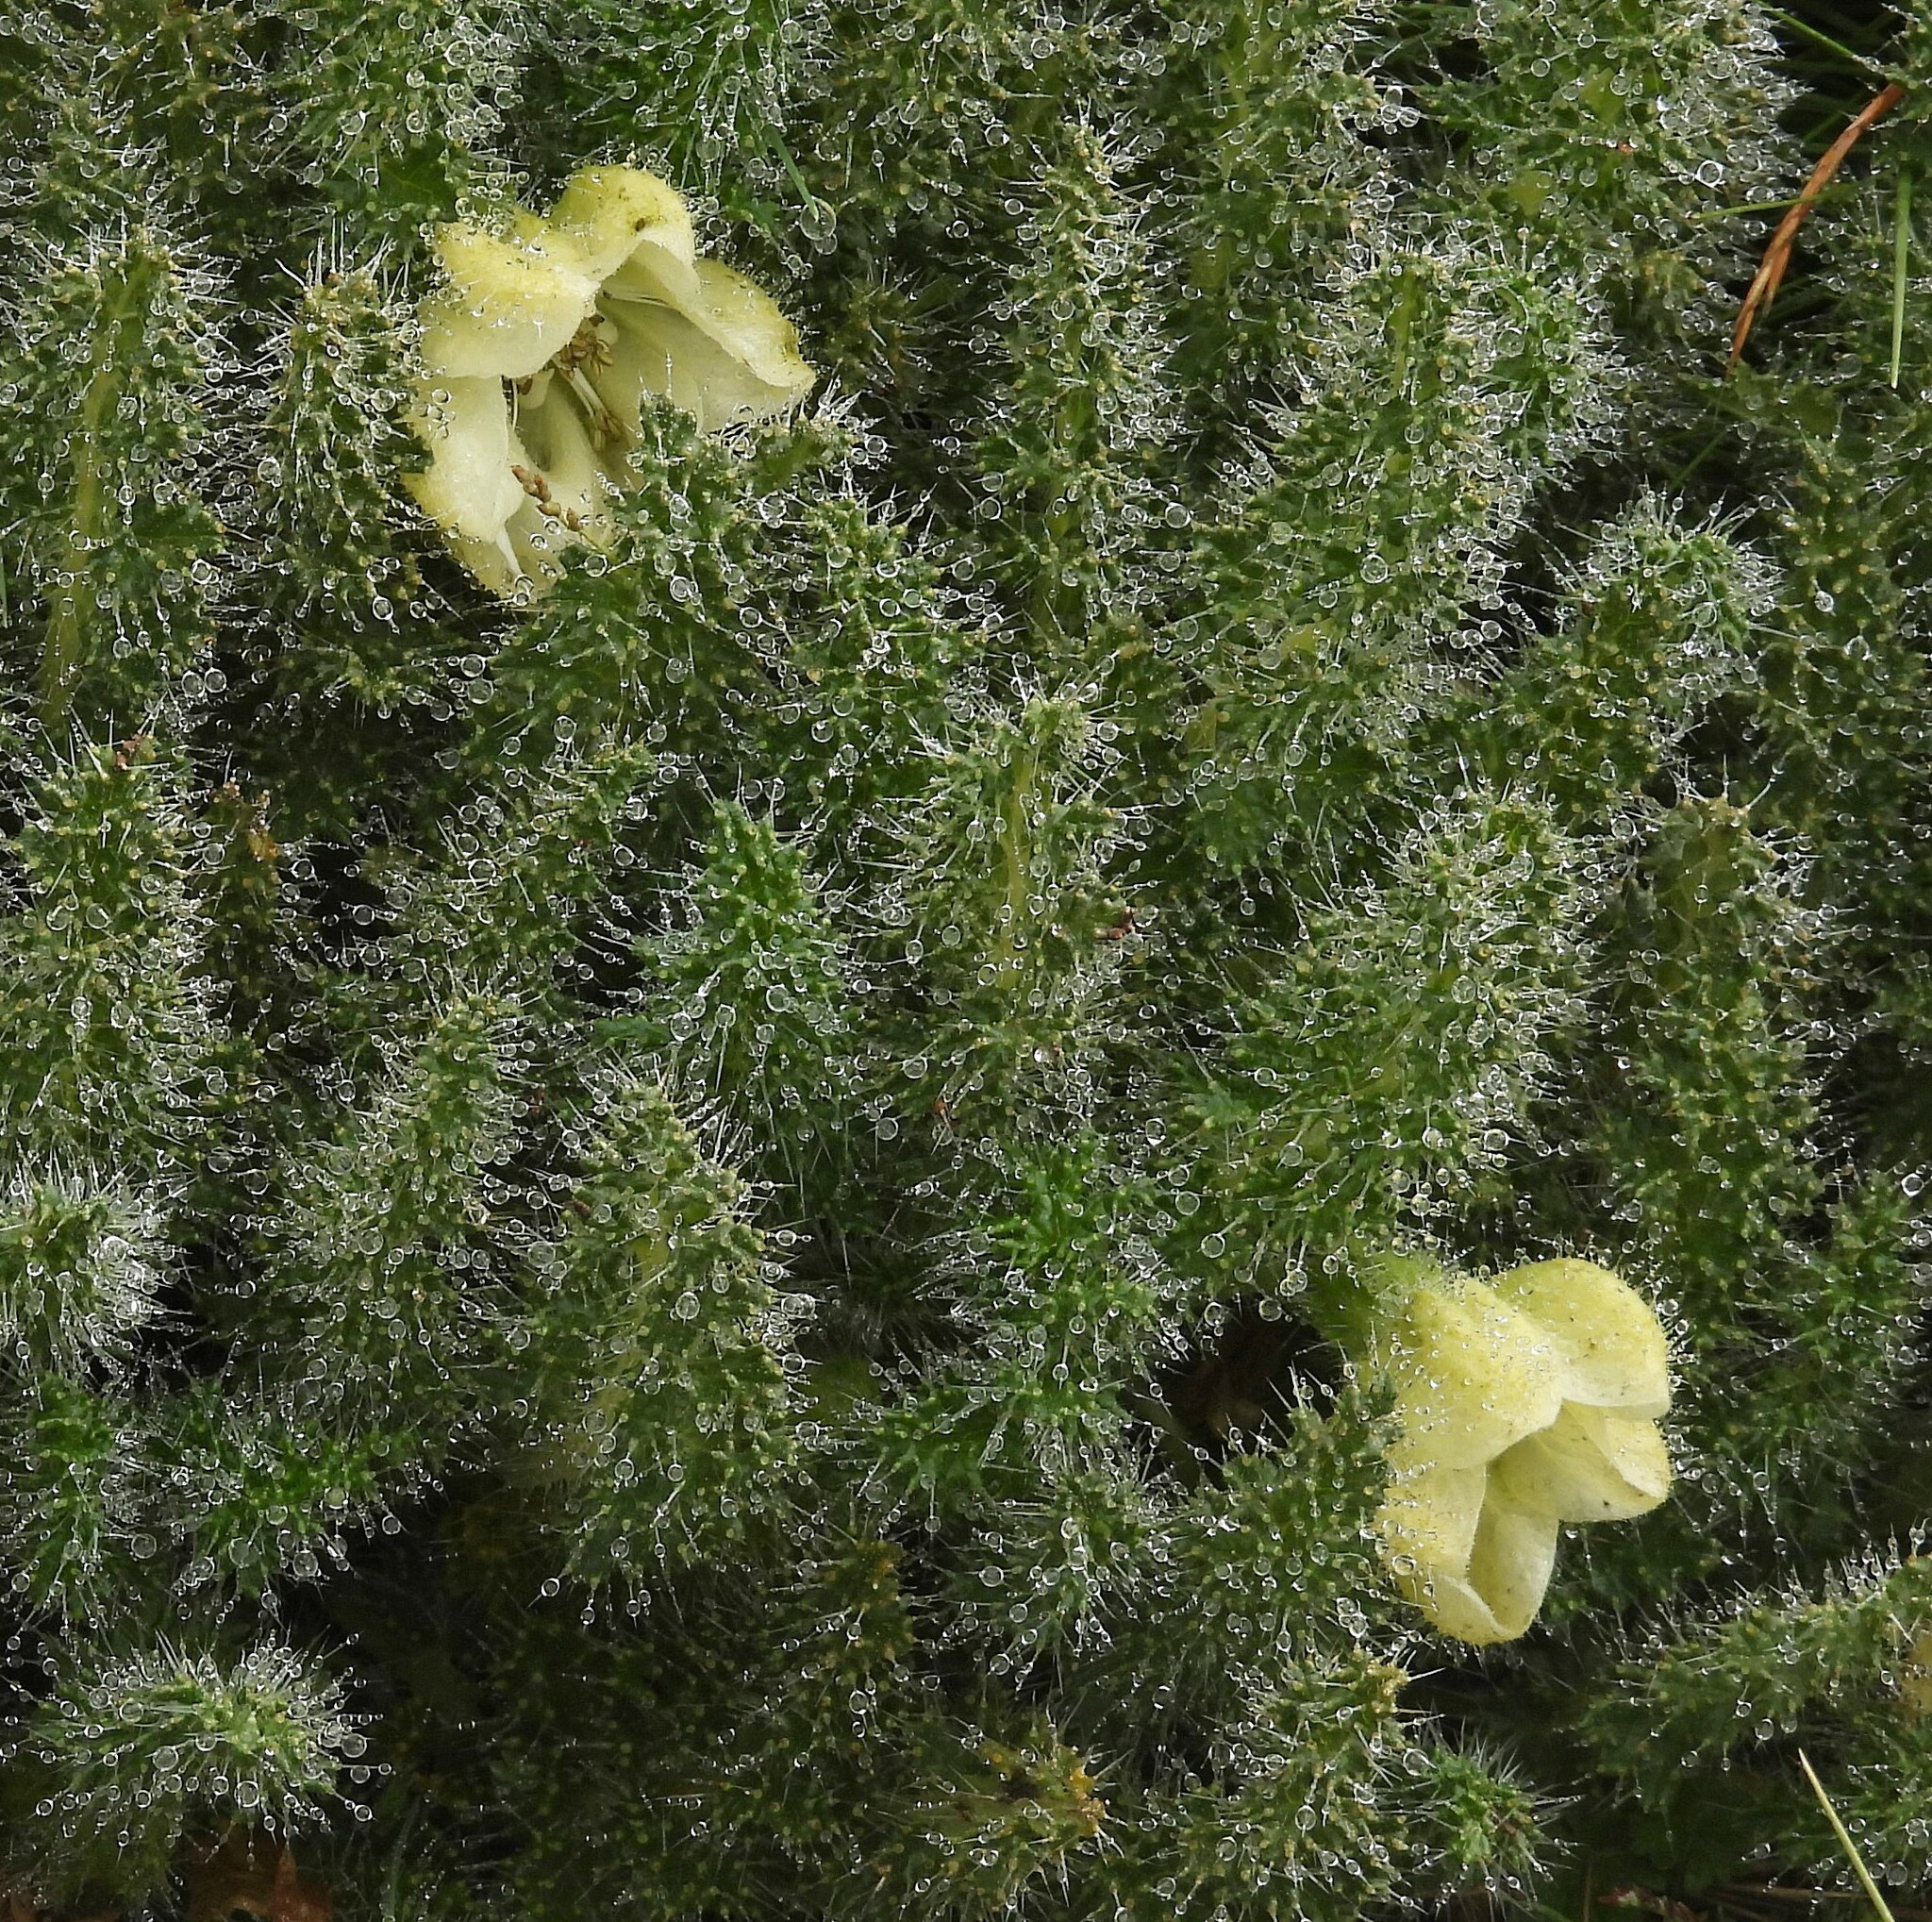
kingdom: Plantae
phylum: Tracheophyta
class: Magnoliopsida
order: Cornales
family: Loasaceae
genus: Caiophora
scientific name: Caiophora coronata
